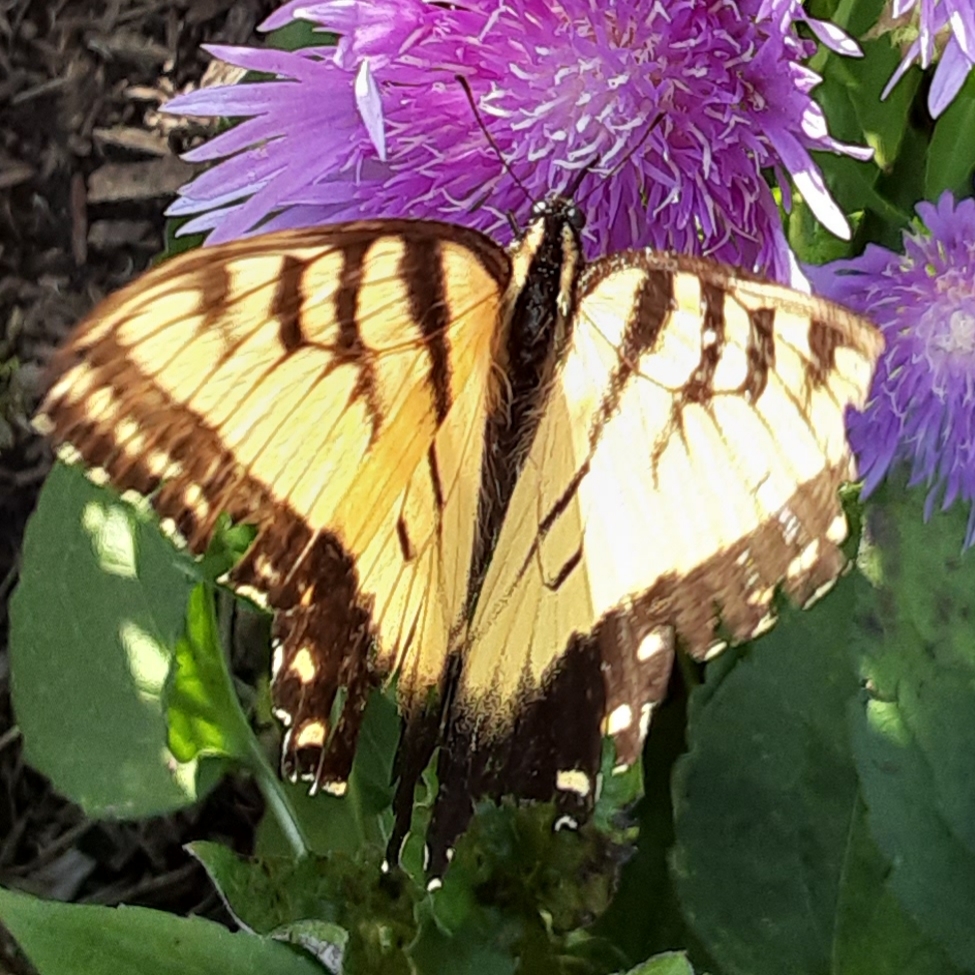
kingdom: Animalia
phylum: Arthropoda
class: Insecta
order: Lepidoptera
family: Papilionidae
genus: Papilio
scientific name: Papilio glaucus
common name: Tiger swallowtail
